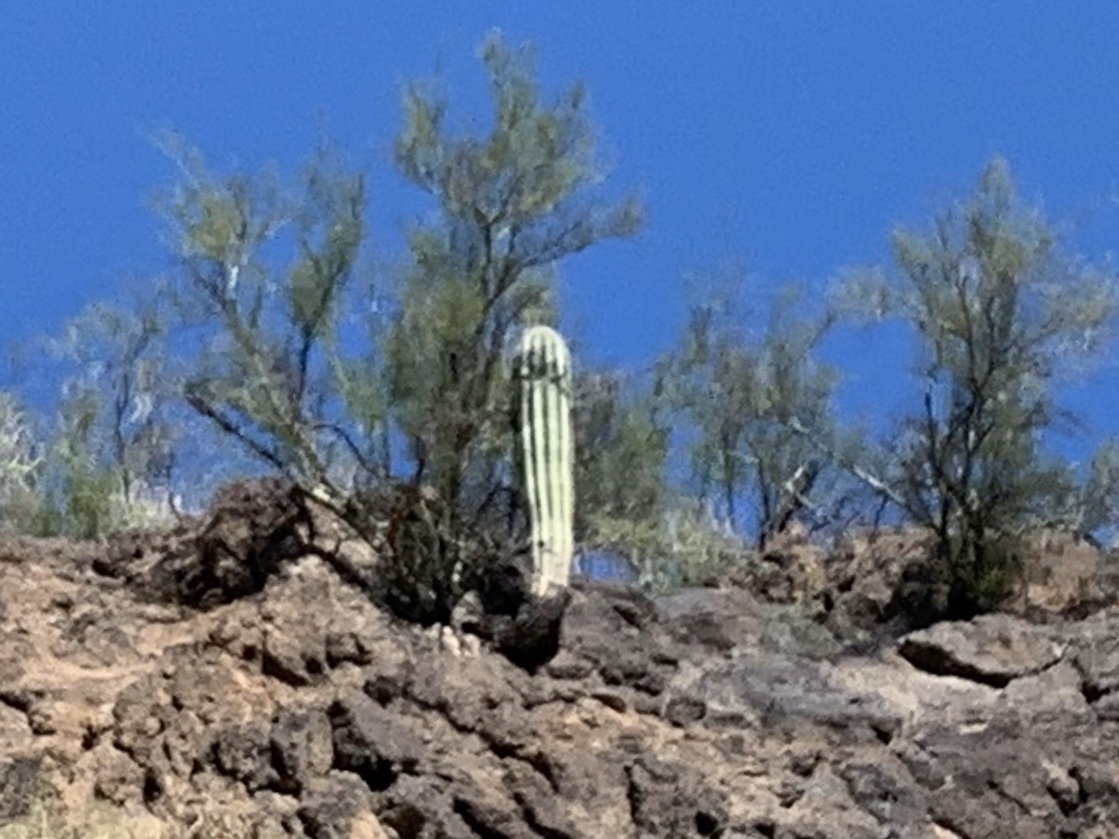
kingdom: Plantae
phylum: Tracheophyta
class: Magnoliopsida
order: Caryophyllales
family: Cactaceae
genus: Carnegiea
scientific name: Carnegiea gigantea
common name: Saguaro
